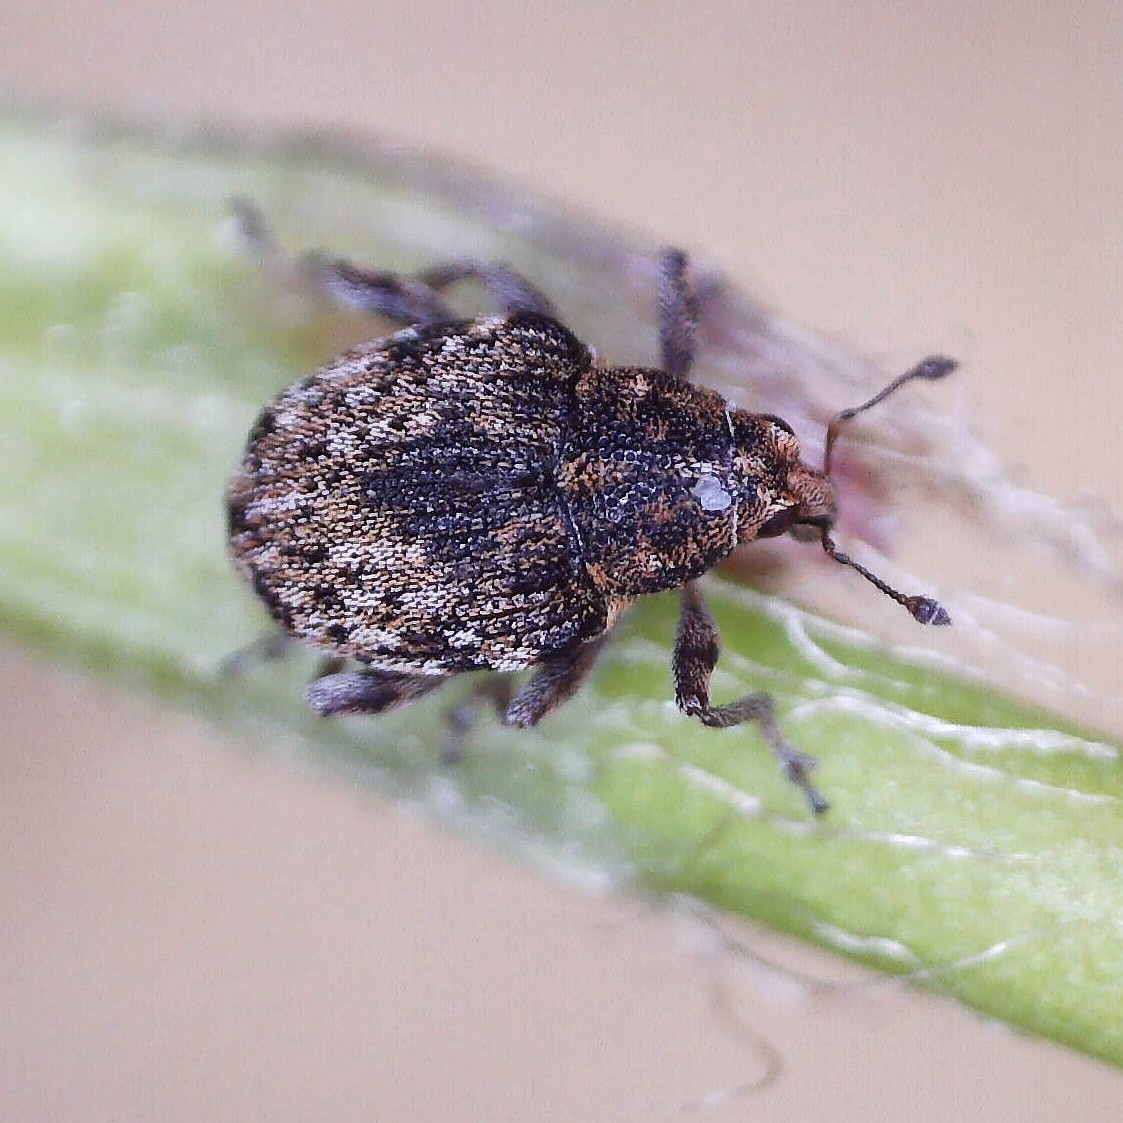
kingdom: Animalia
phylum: Arthropoda
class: Insecta
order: Coleoptera
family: Curculionidae
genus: Rhinoncus
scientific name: Rhinoncus bruchoides
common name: Weevil
